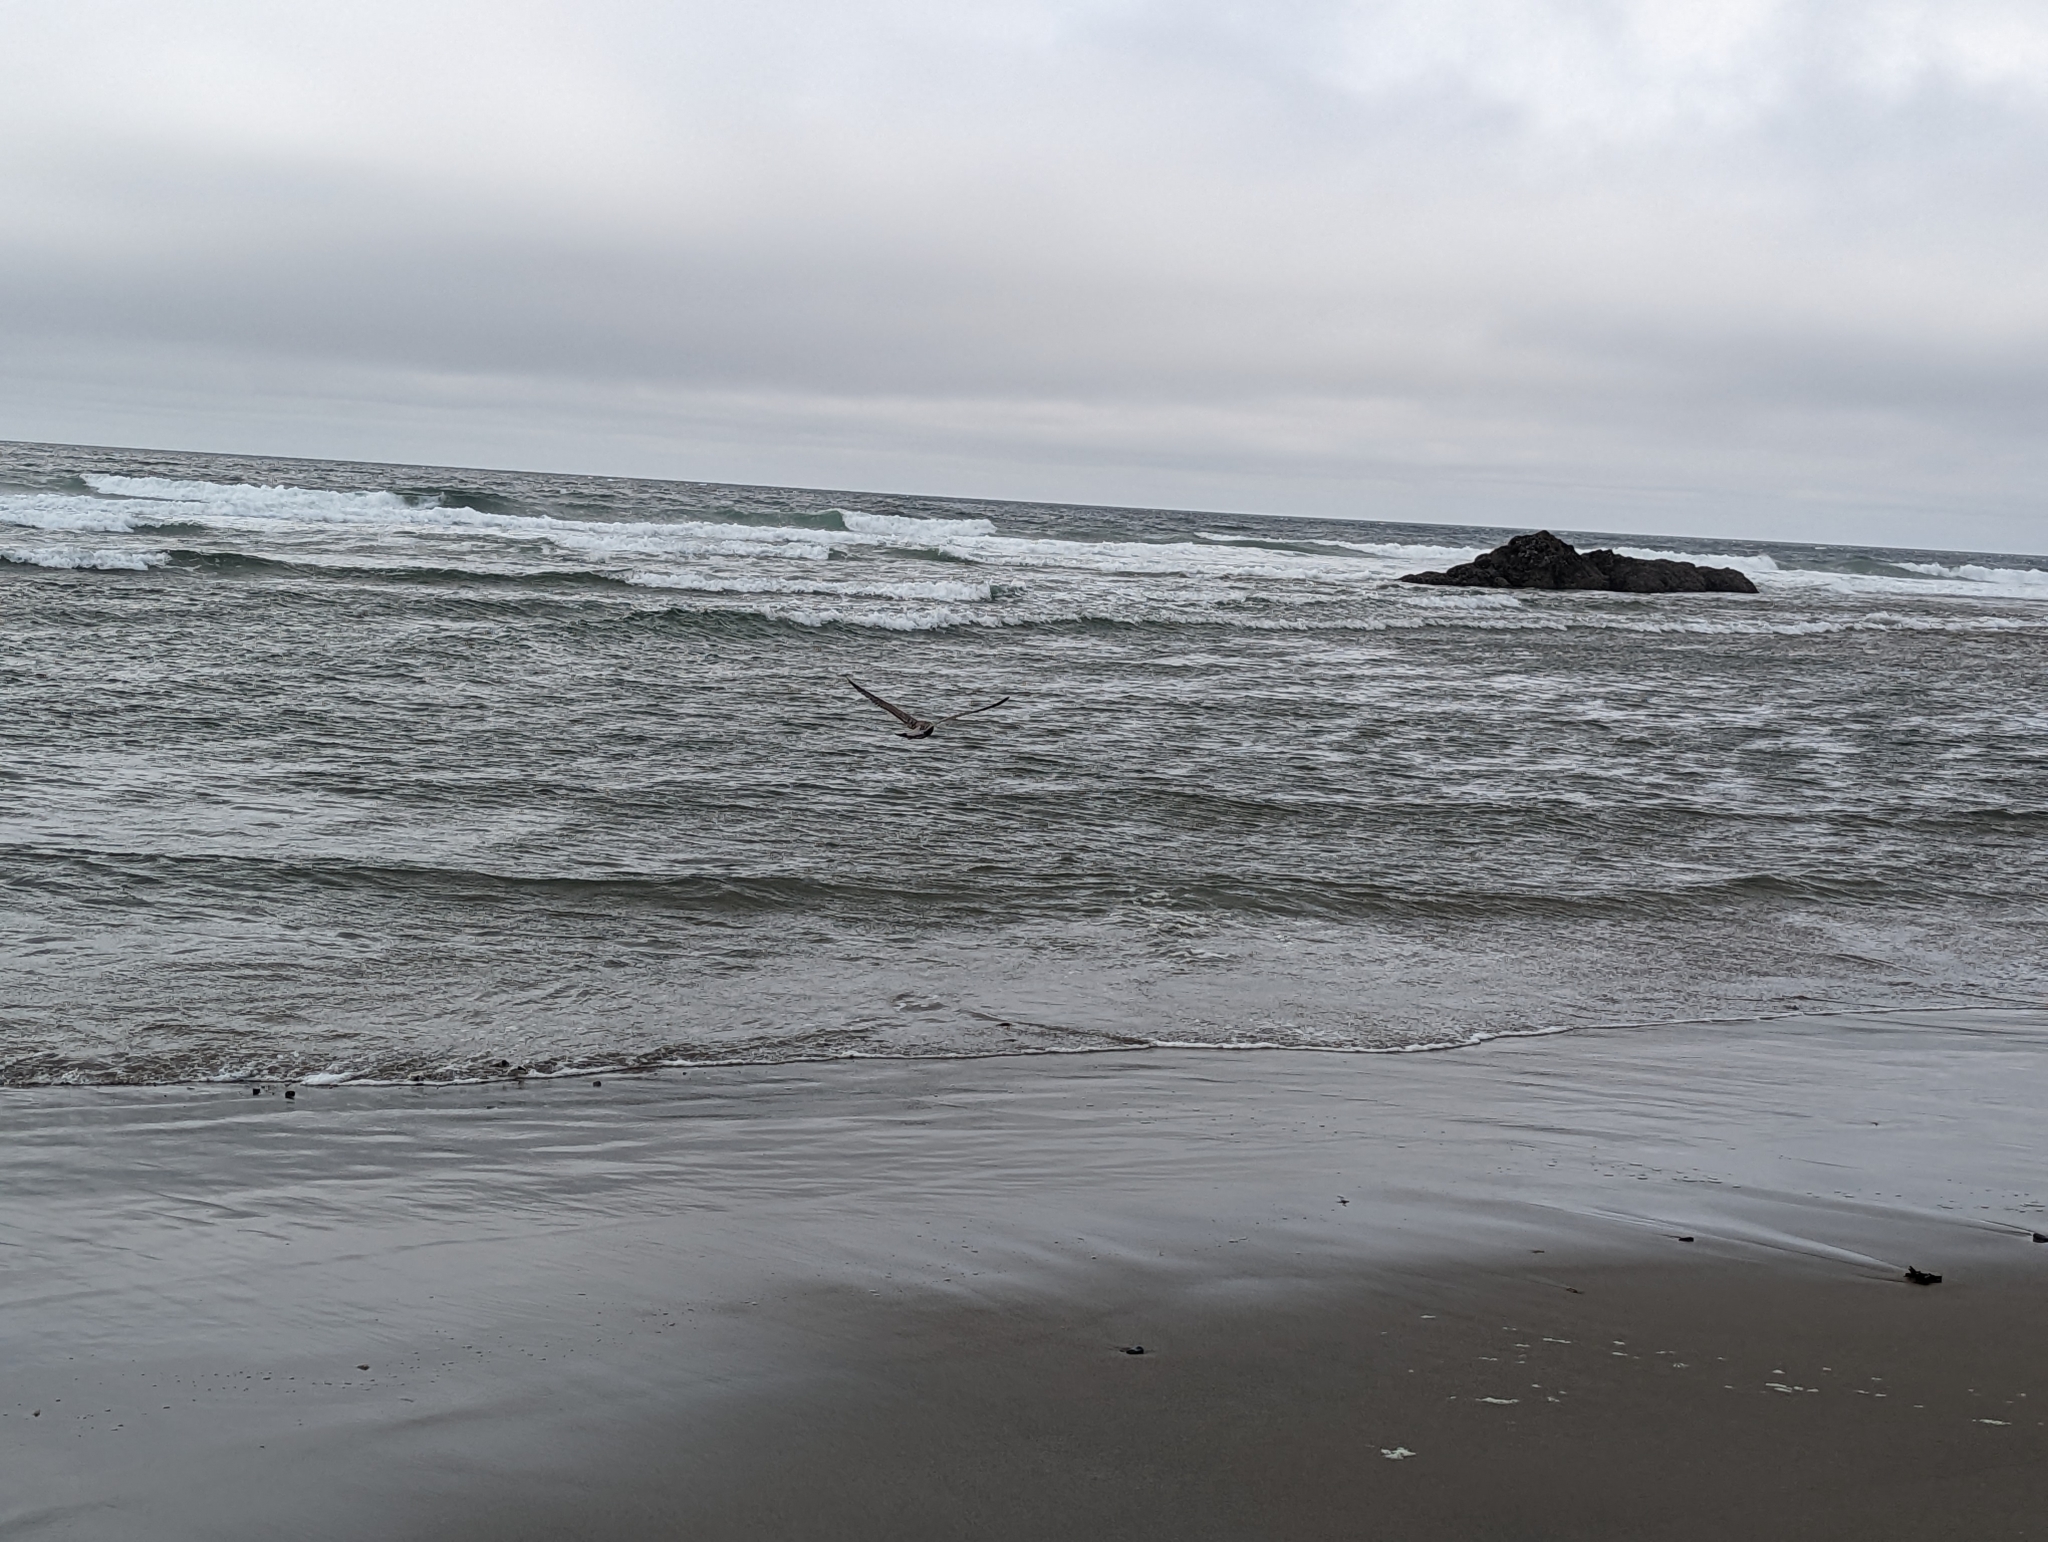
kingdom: Animalia
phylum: Chordata
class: Aves
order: Charadriiformes
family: Laridae
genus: Larus
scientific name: Larus occidentalis
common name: Western gull
